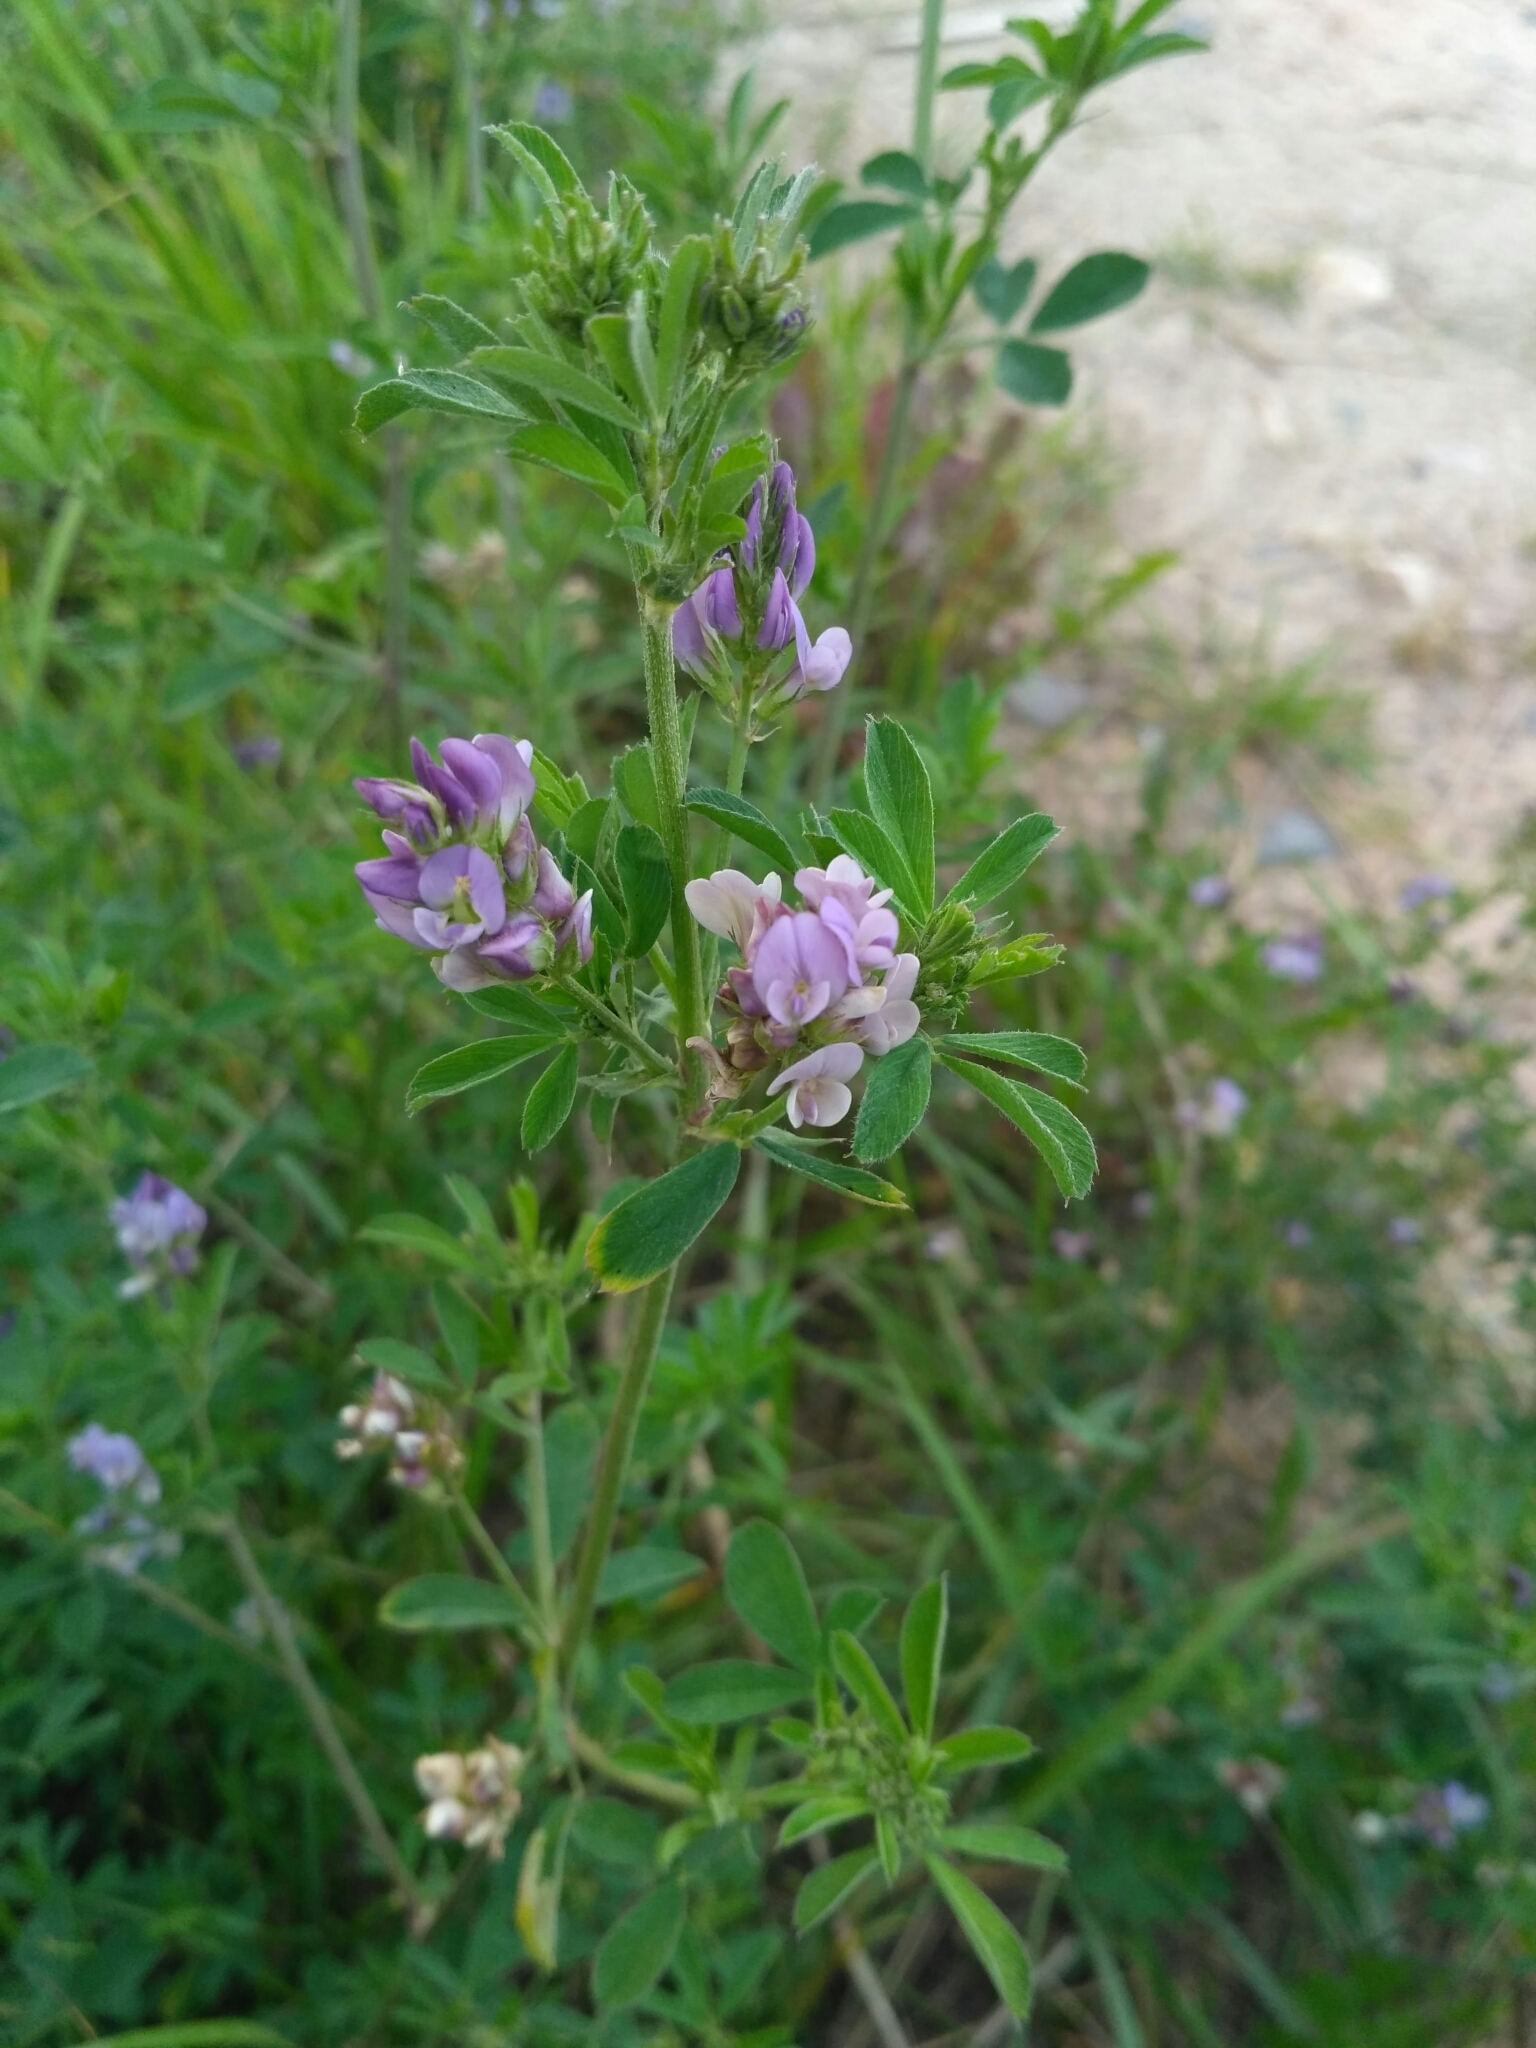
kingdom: Plantae
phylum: Tracheophyta
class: Magnoliopsida
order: Fabales
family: Fabaceae
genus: Medicago
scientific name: Medicago sativa
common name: Alfalfa
